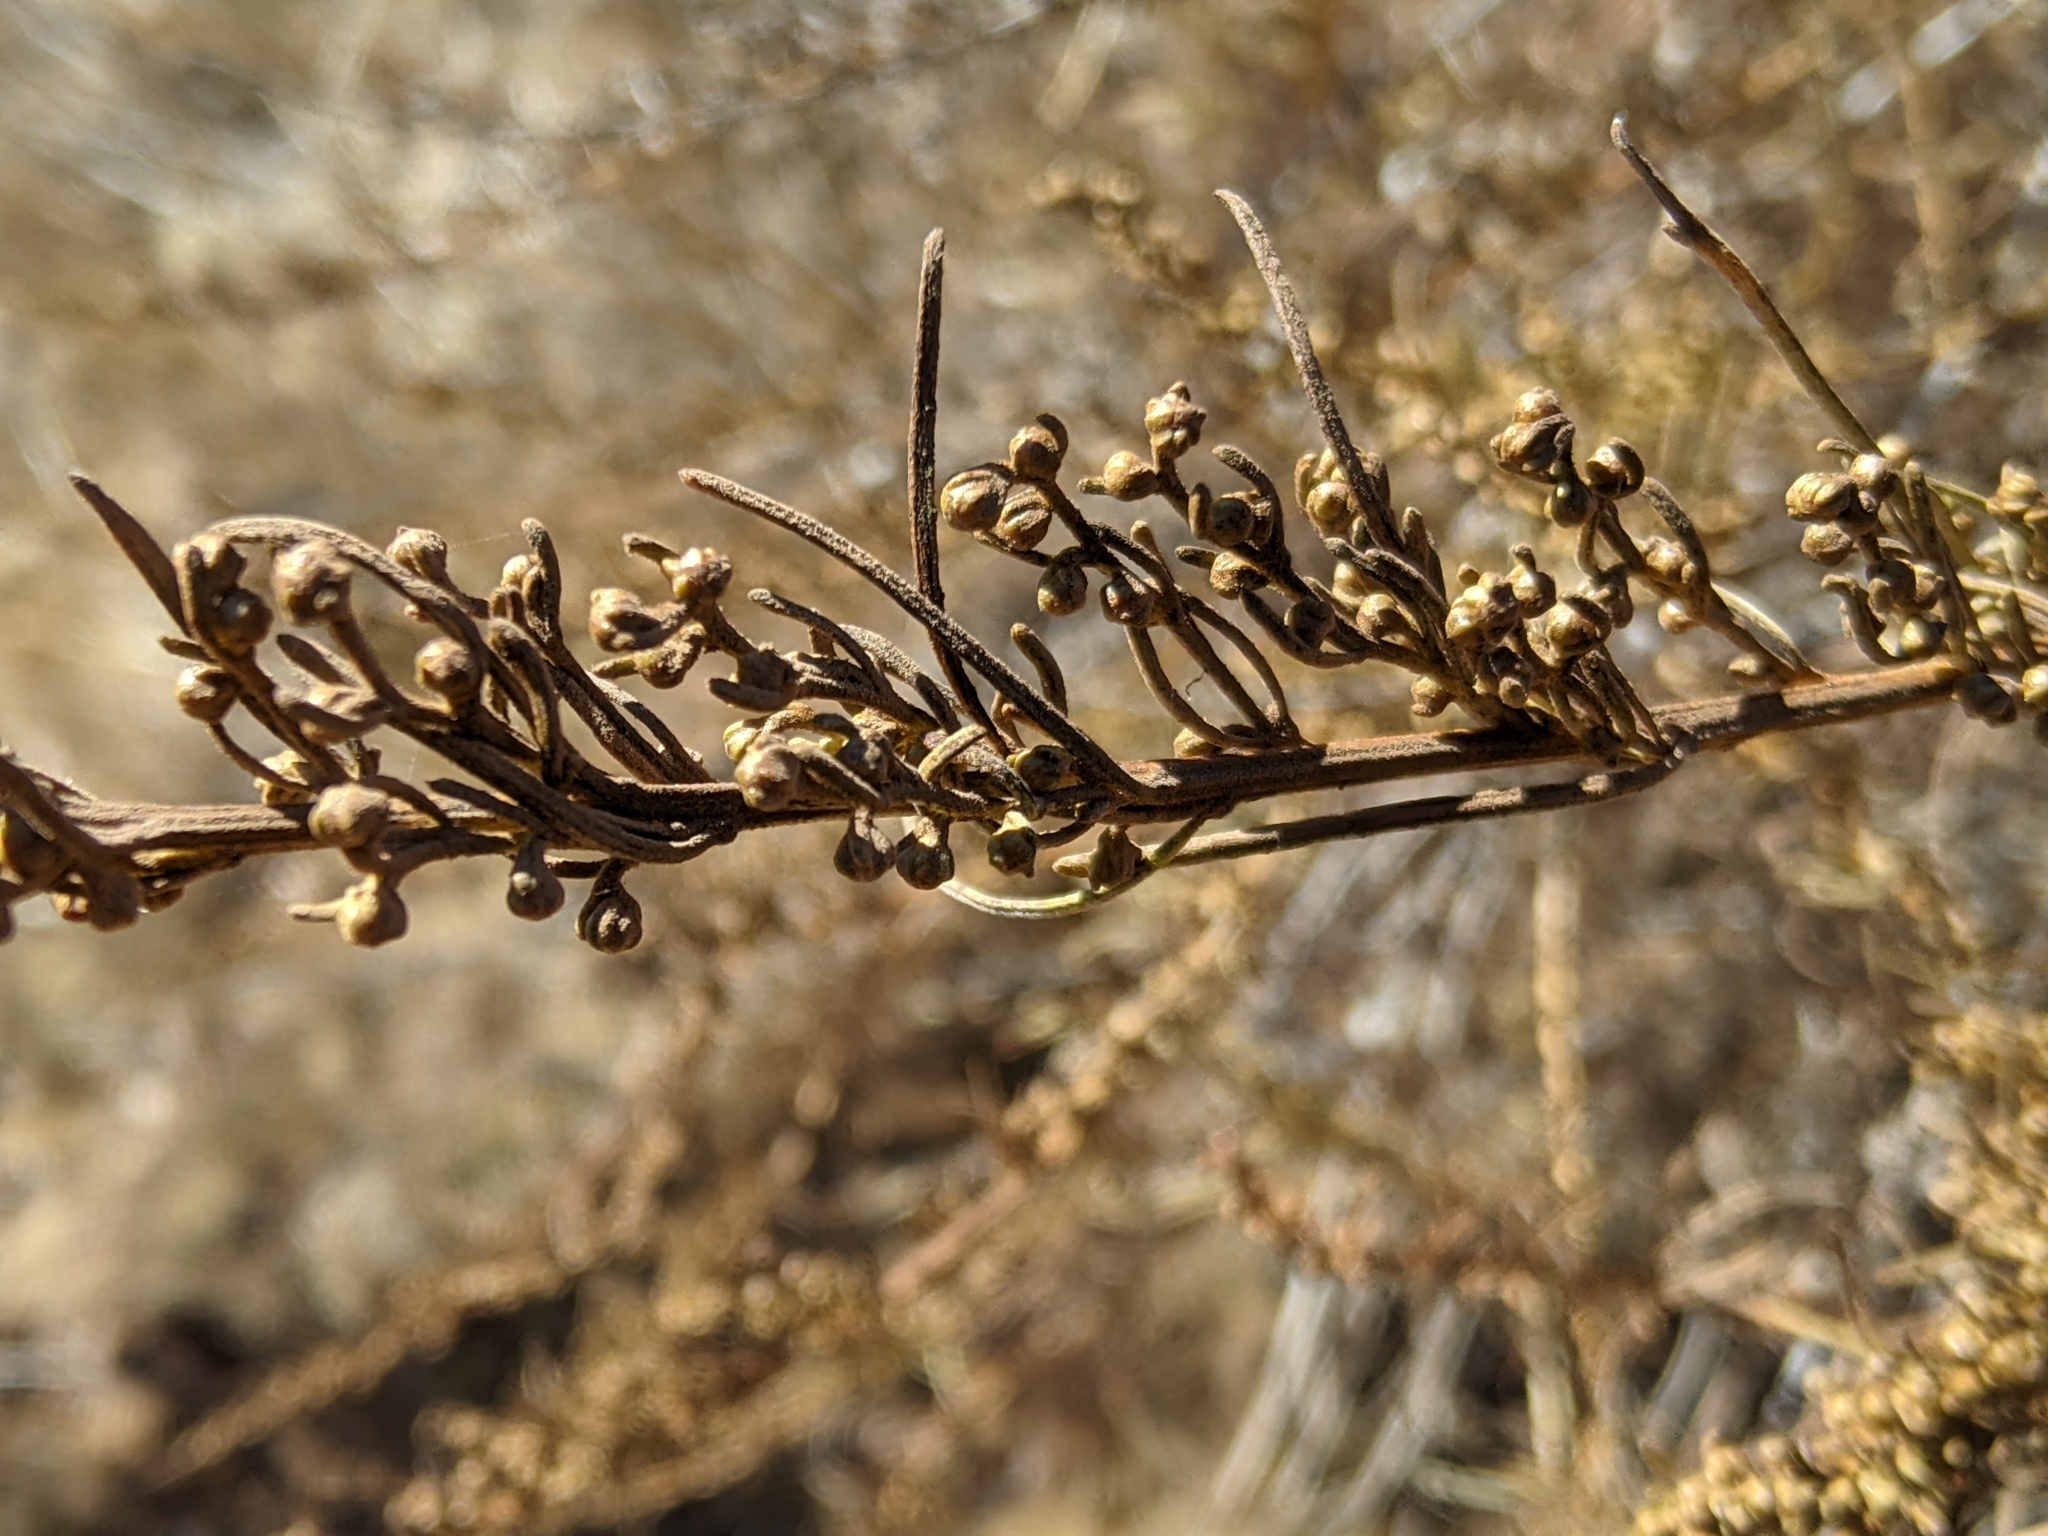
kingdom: Animalia
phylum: Arthropoda
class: Insecta
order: Diptera
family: Cecidomyiidae
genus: Rhopalomyia
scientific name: Rhopalomyia floccosa
